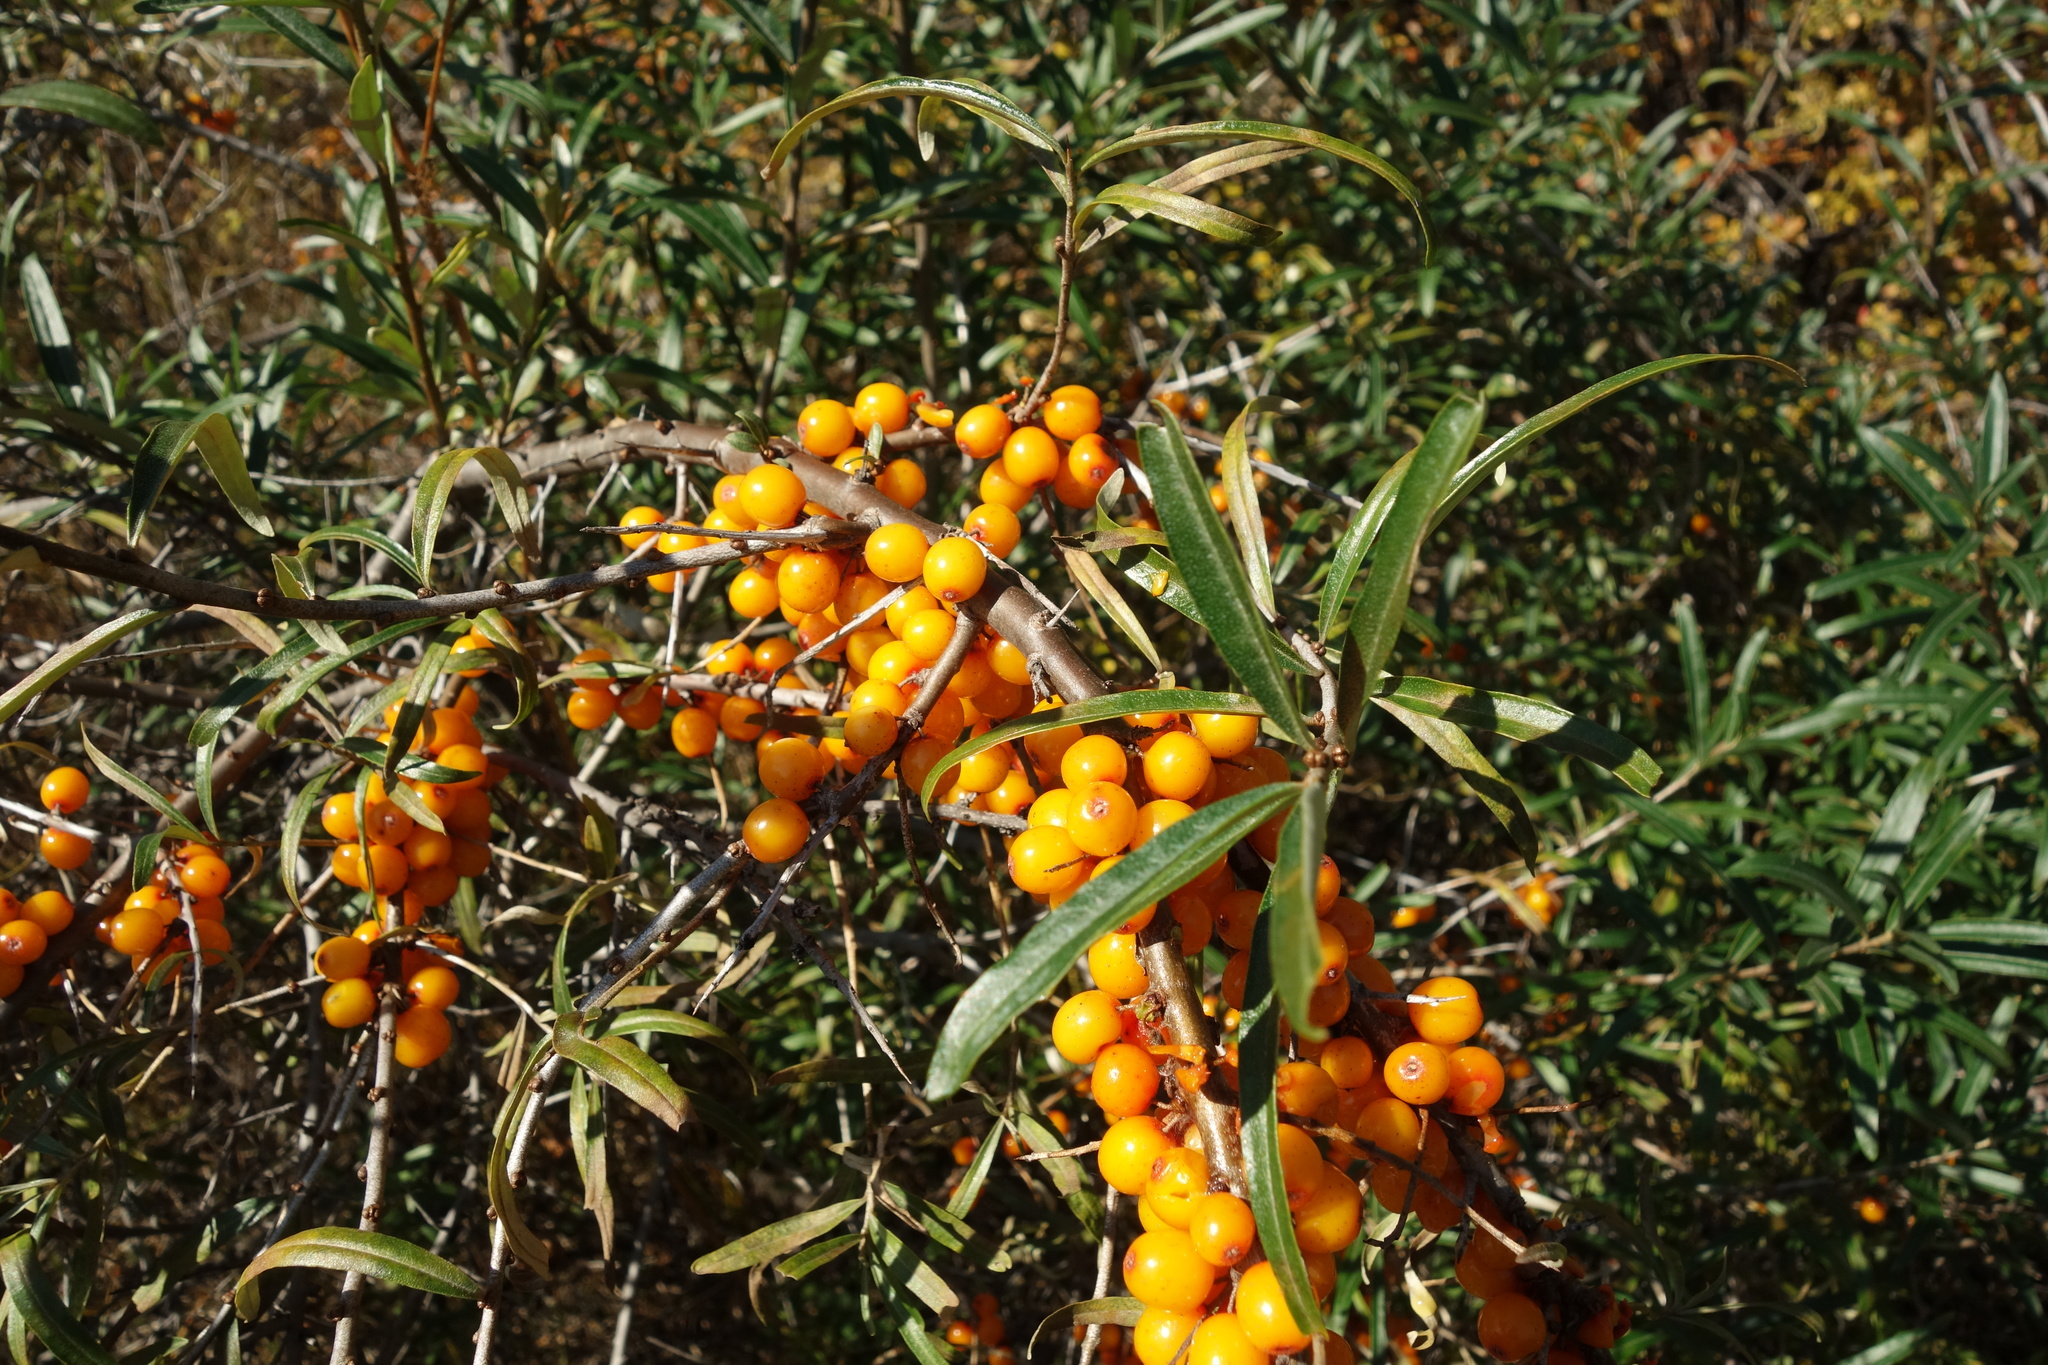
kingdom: Plantae
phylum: Tracheophyta
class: Magnoliopsida
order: Rosales
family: Elaeagnaceae
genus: Hippophae
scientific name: Hippophae rhamnoides
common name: Sea-buckthorn
